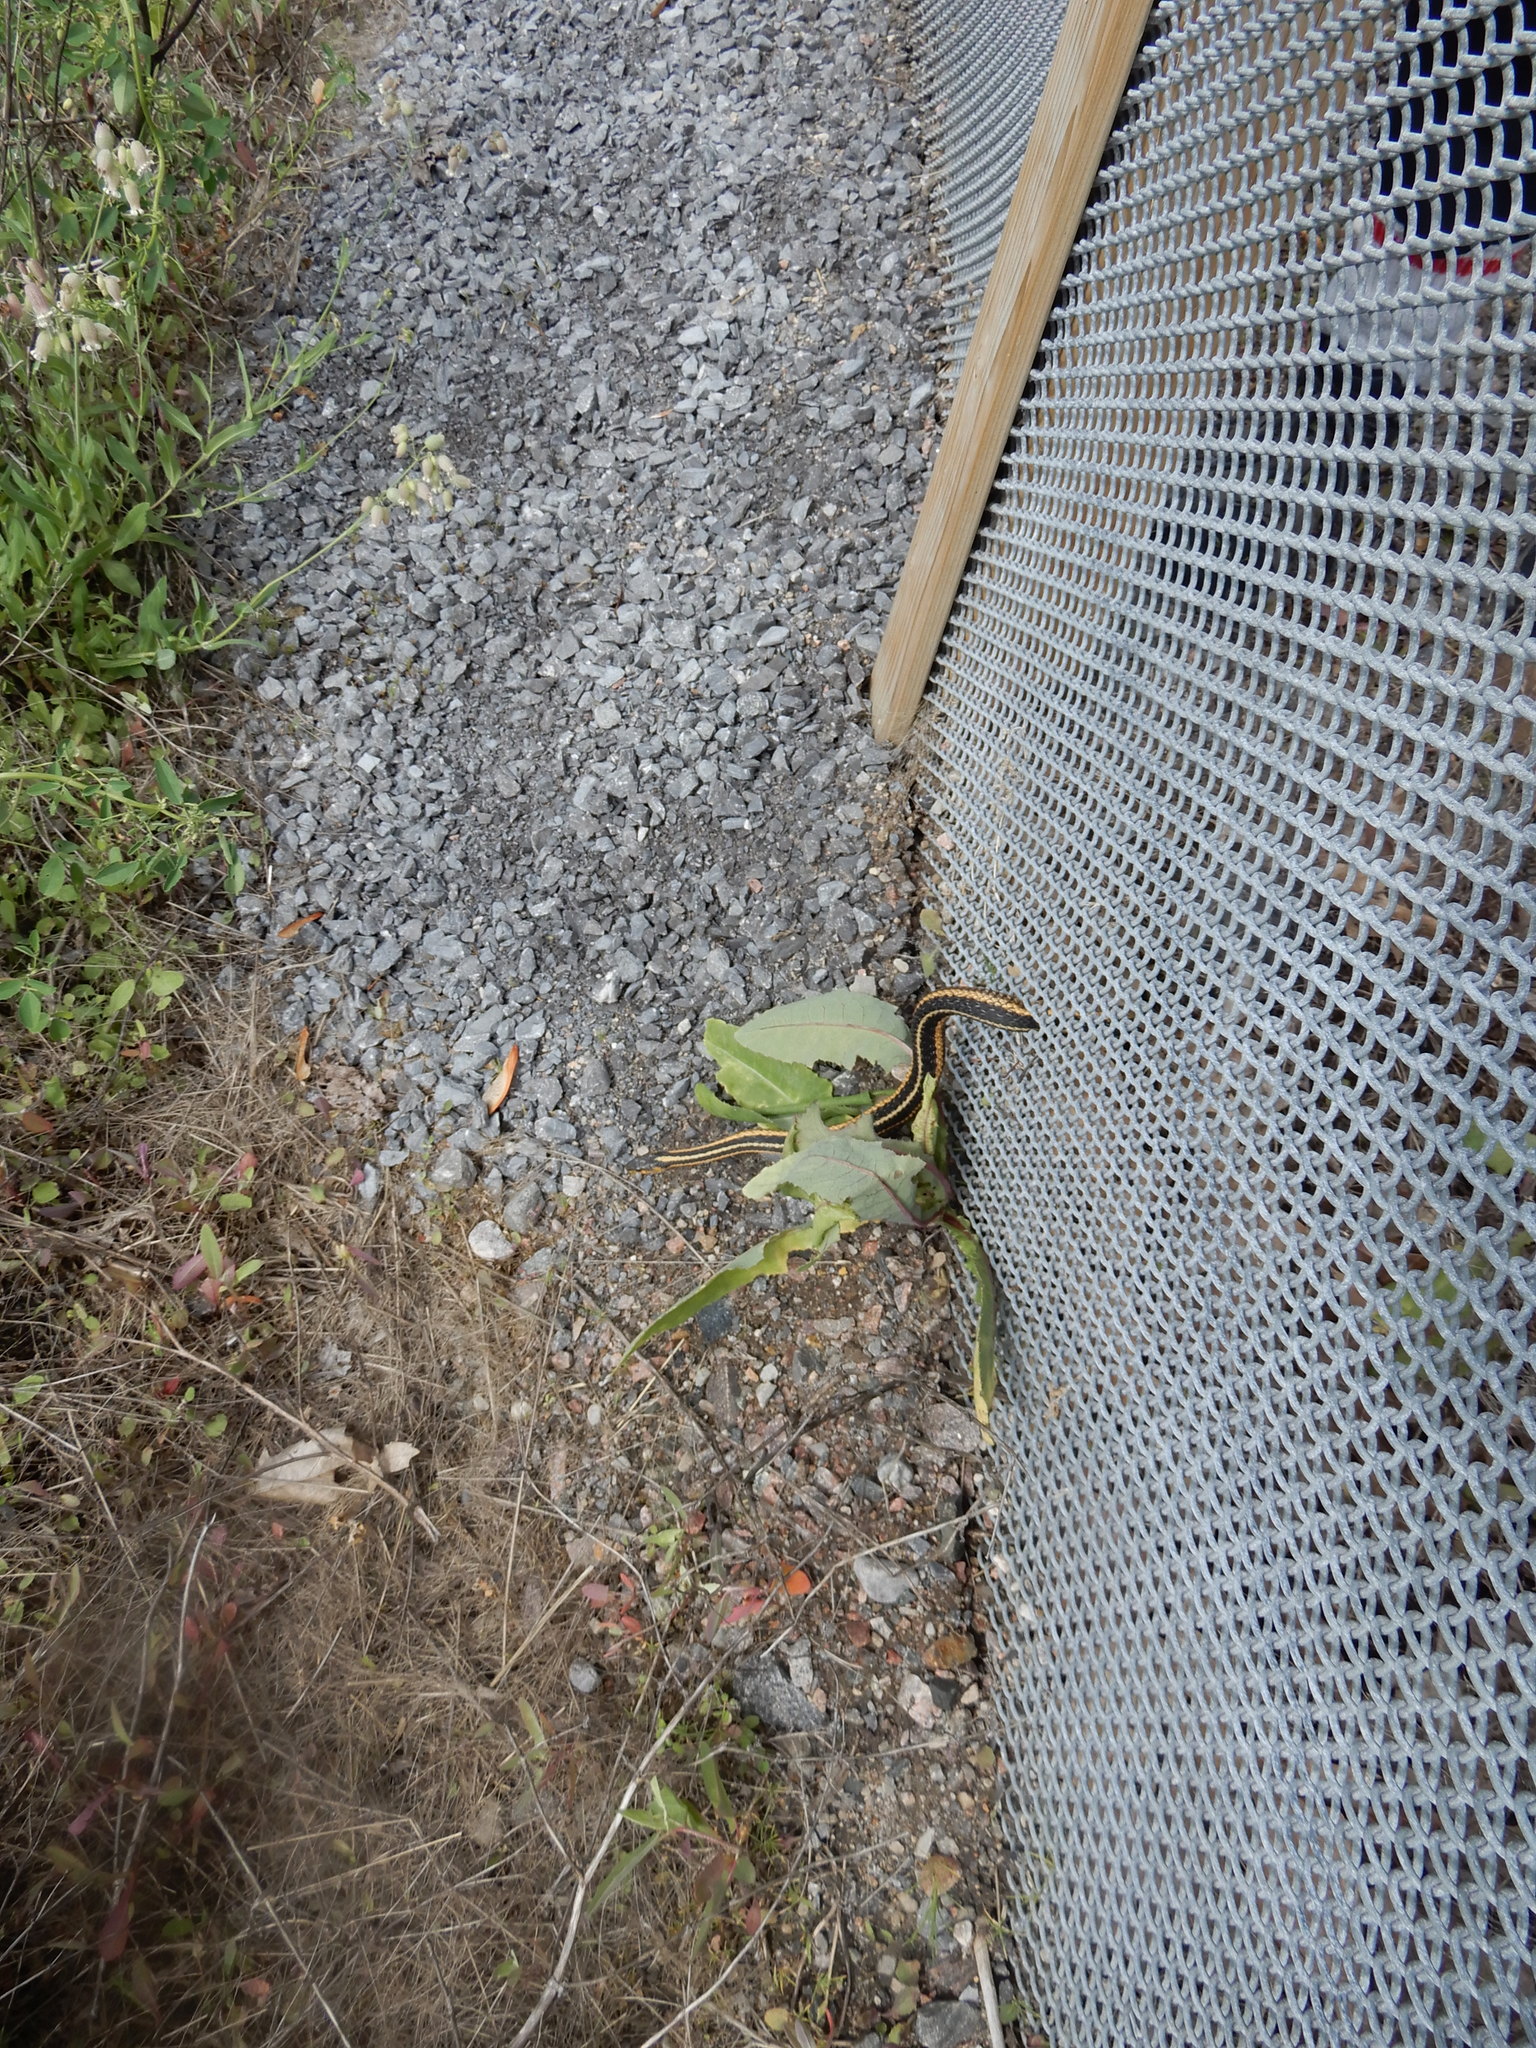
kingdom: Animalia
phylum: Chordata
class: Squamata
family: Colubridae
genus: Thamnophis
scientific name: Thamnophis sirtalis
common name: Common garter snake
